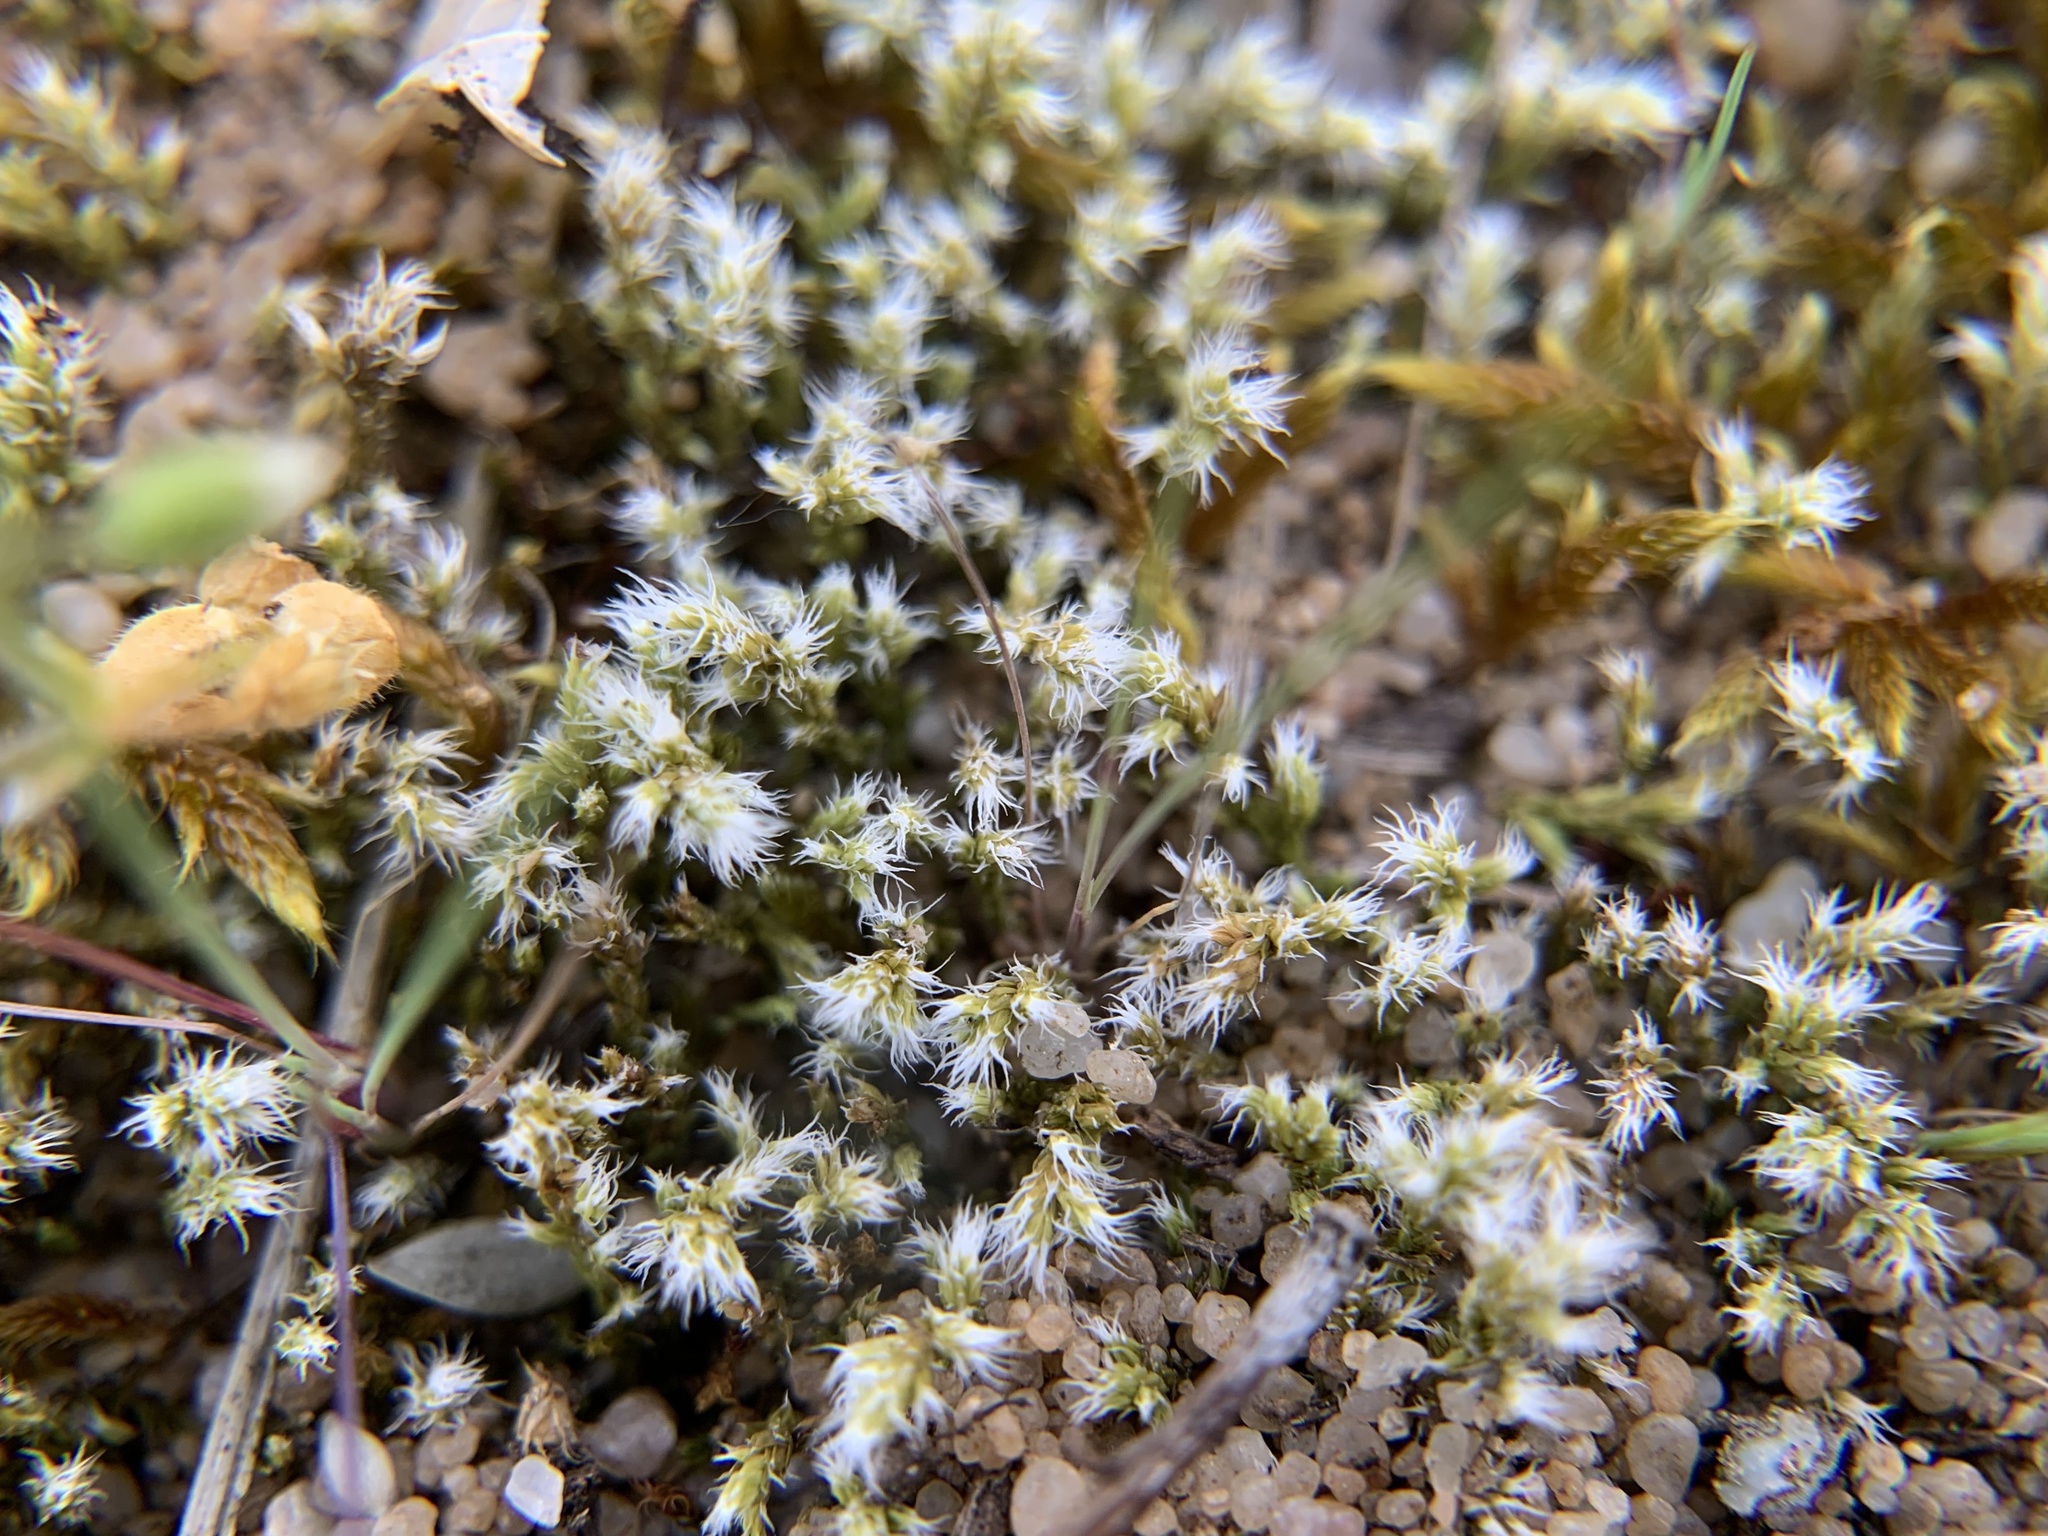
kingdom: Plantae
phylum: Bryophyta
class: Bryopsida
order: Grimmiales
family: Grimmiaceae
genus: Niphotrichum
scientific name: Niphotrichum canescens
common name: Hoary fringe-moss
